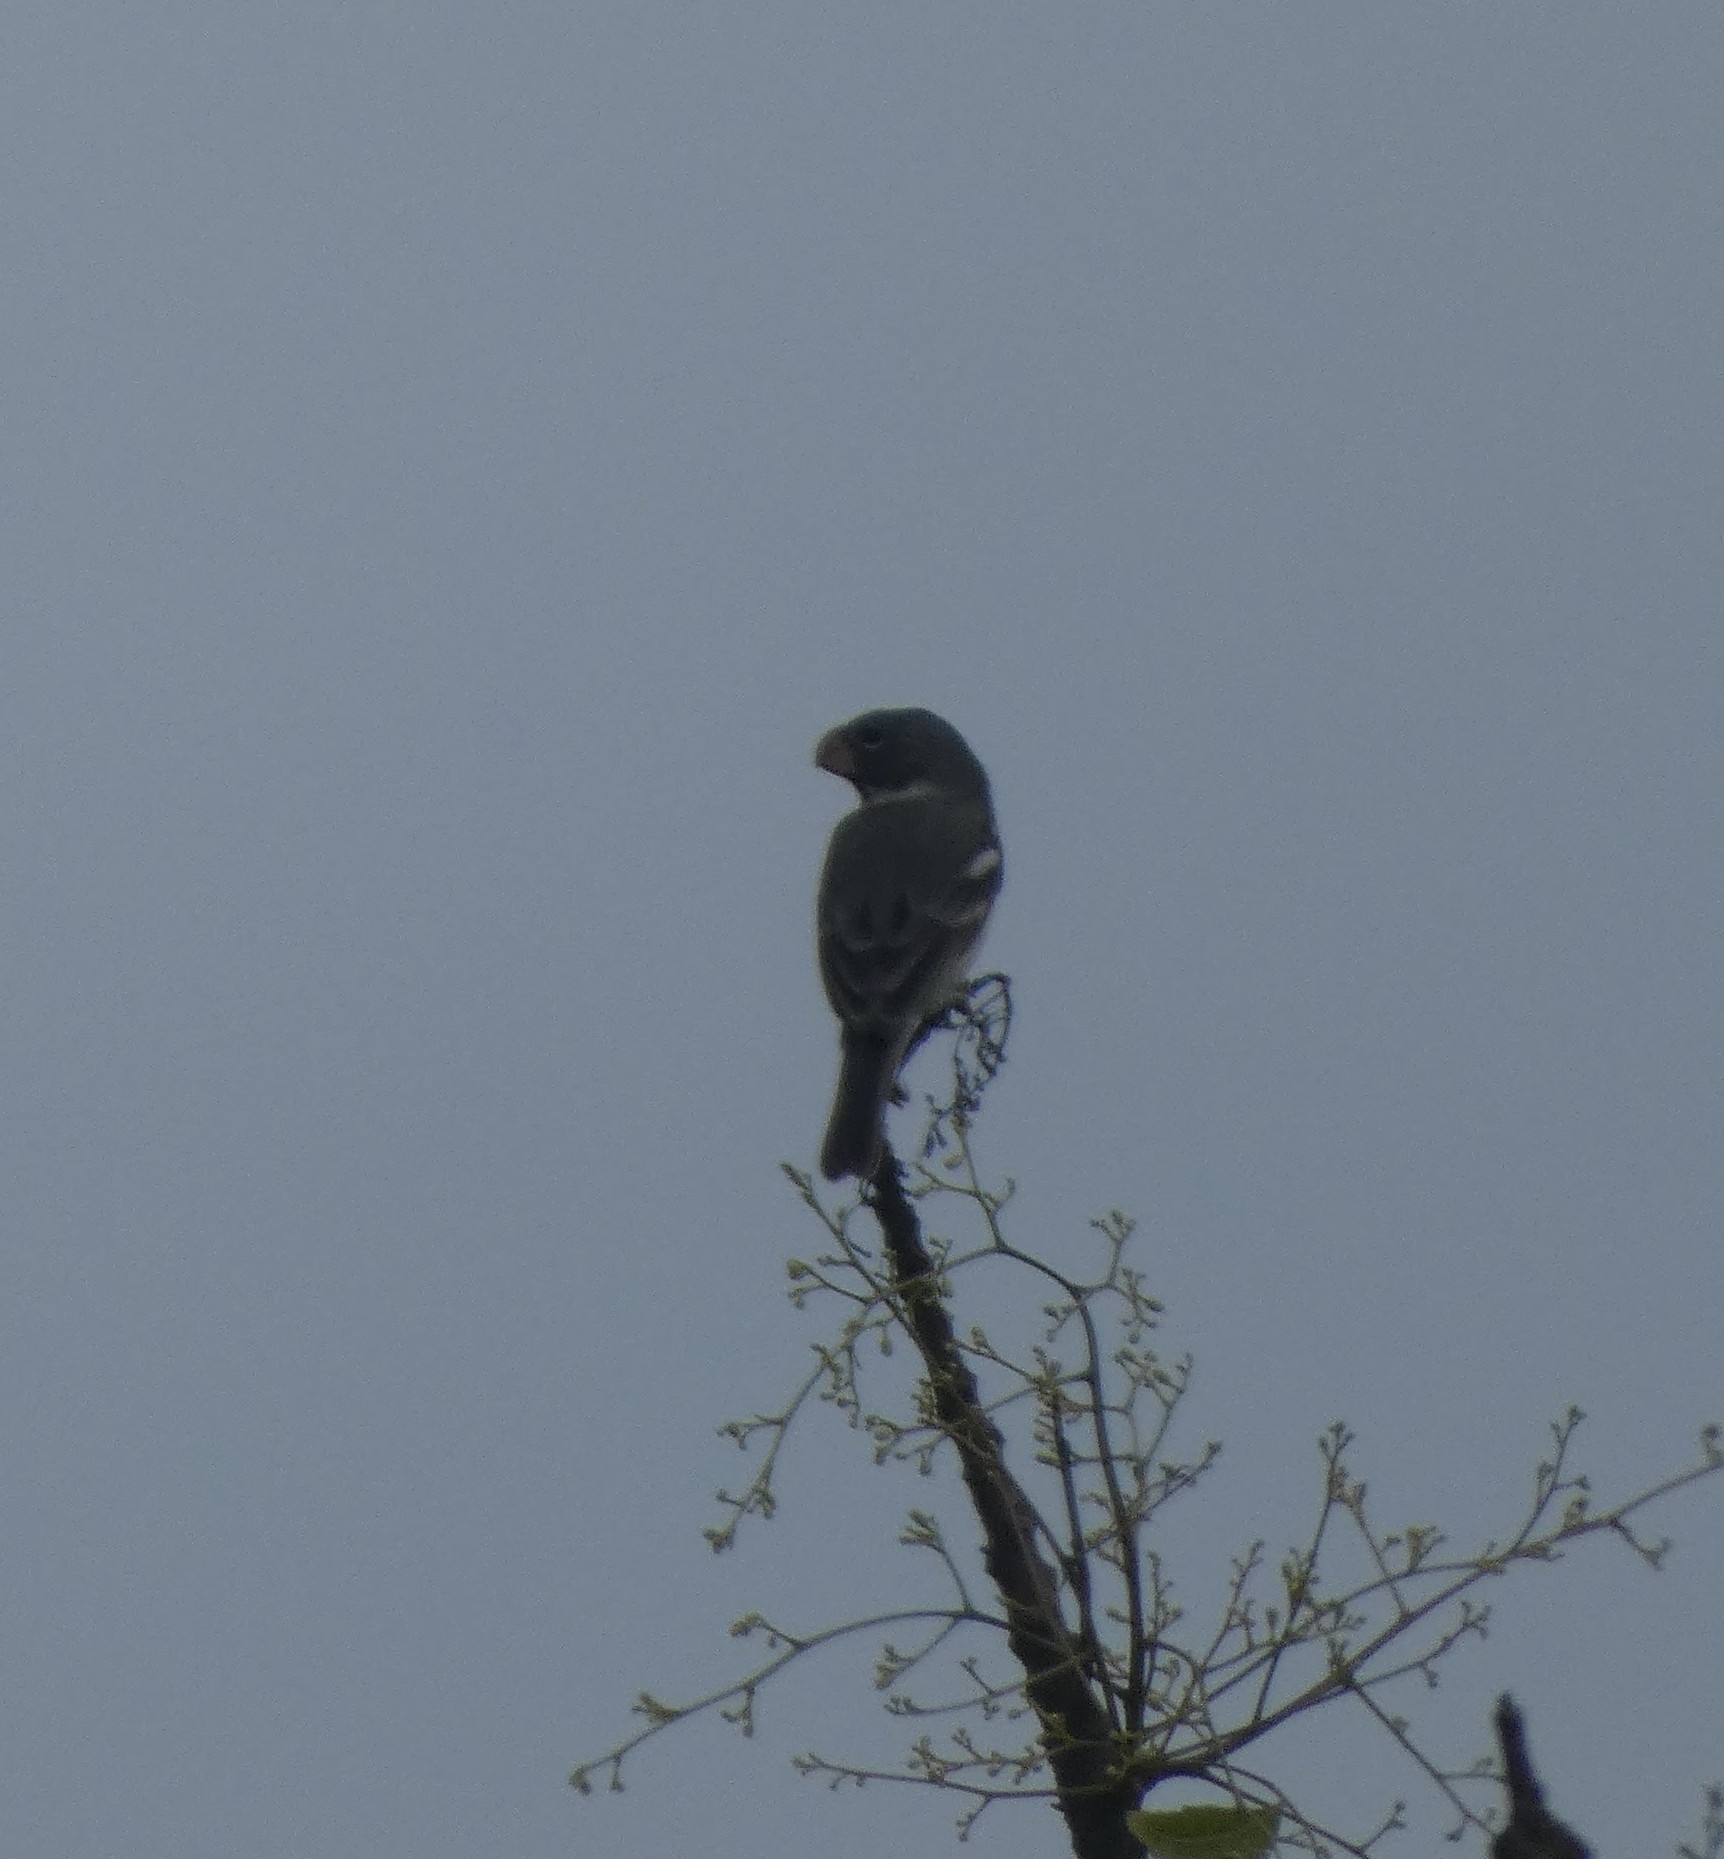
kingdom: Animalia
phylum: Chordata
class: Aves
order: Passeriformes
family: Thraupidae
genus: Sporophila
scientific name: Sporophila peruviana
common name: Parrot-billed seedeater
